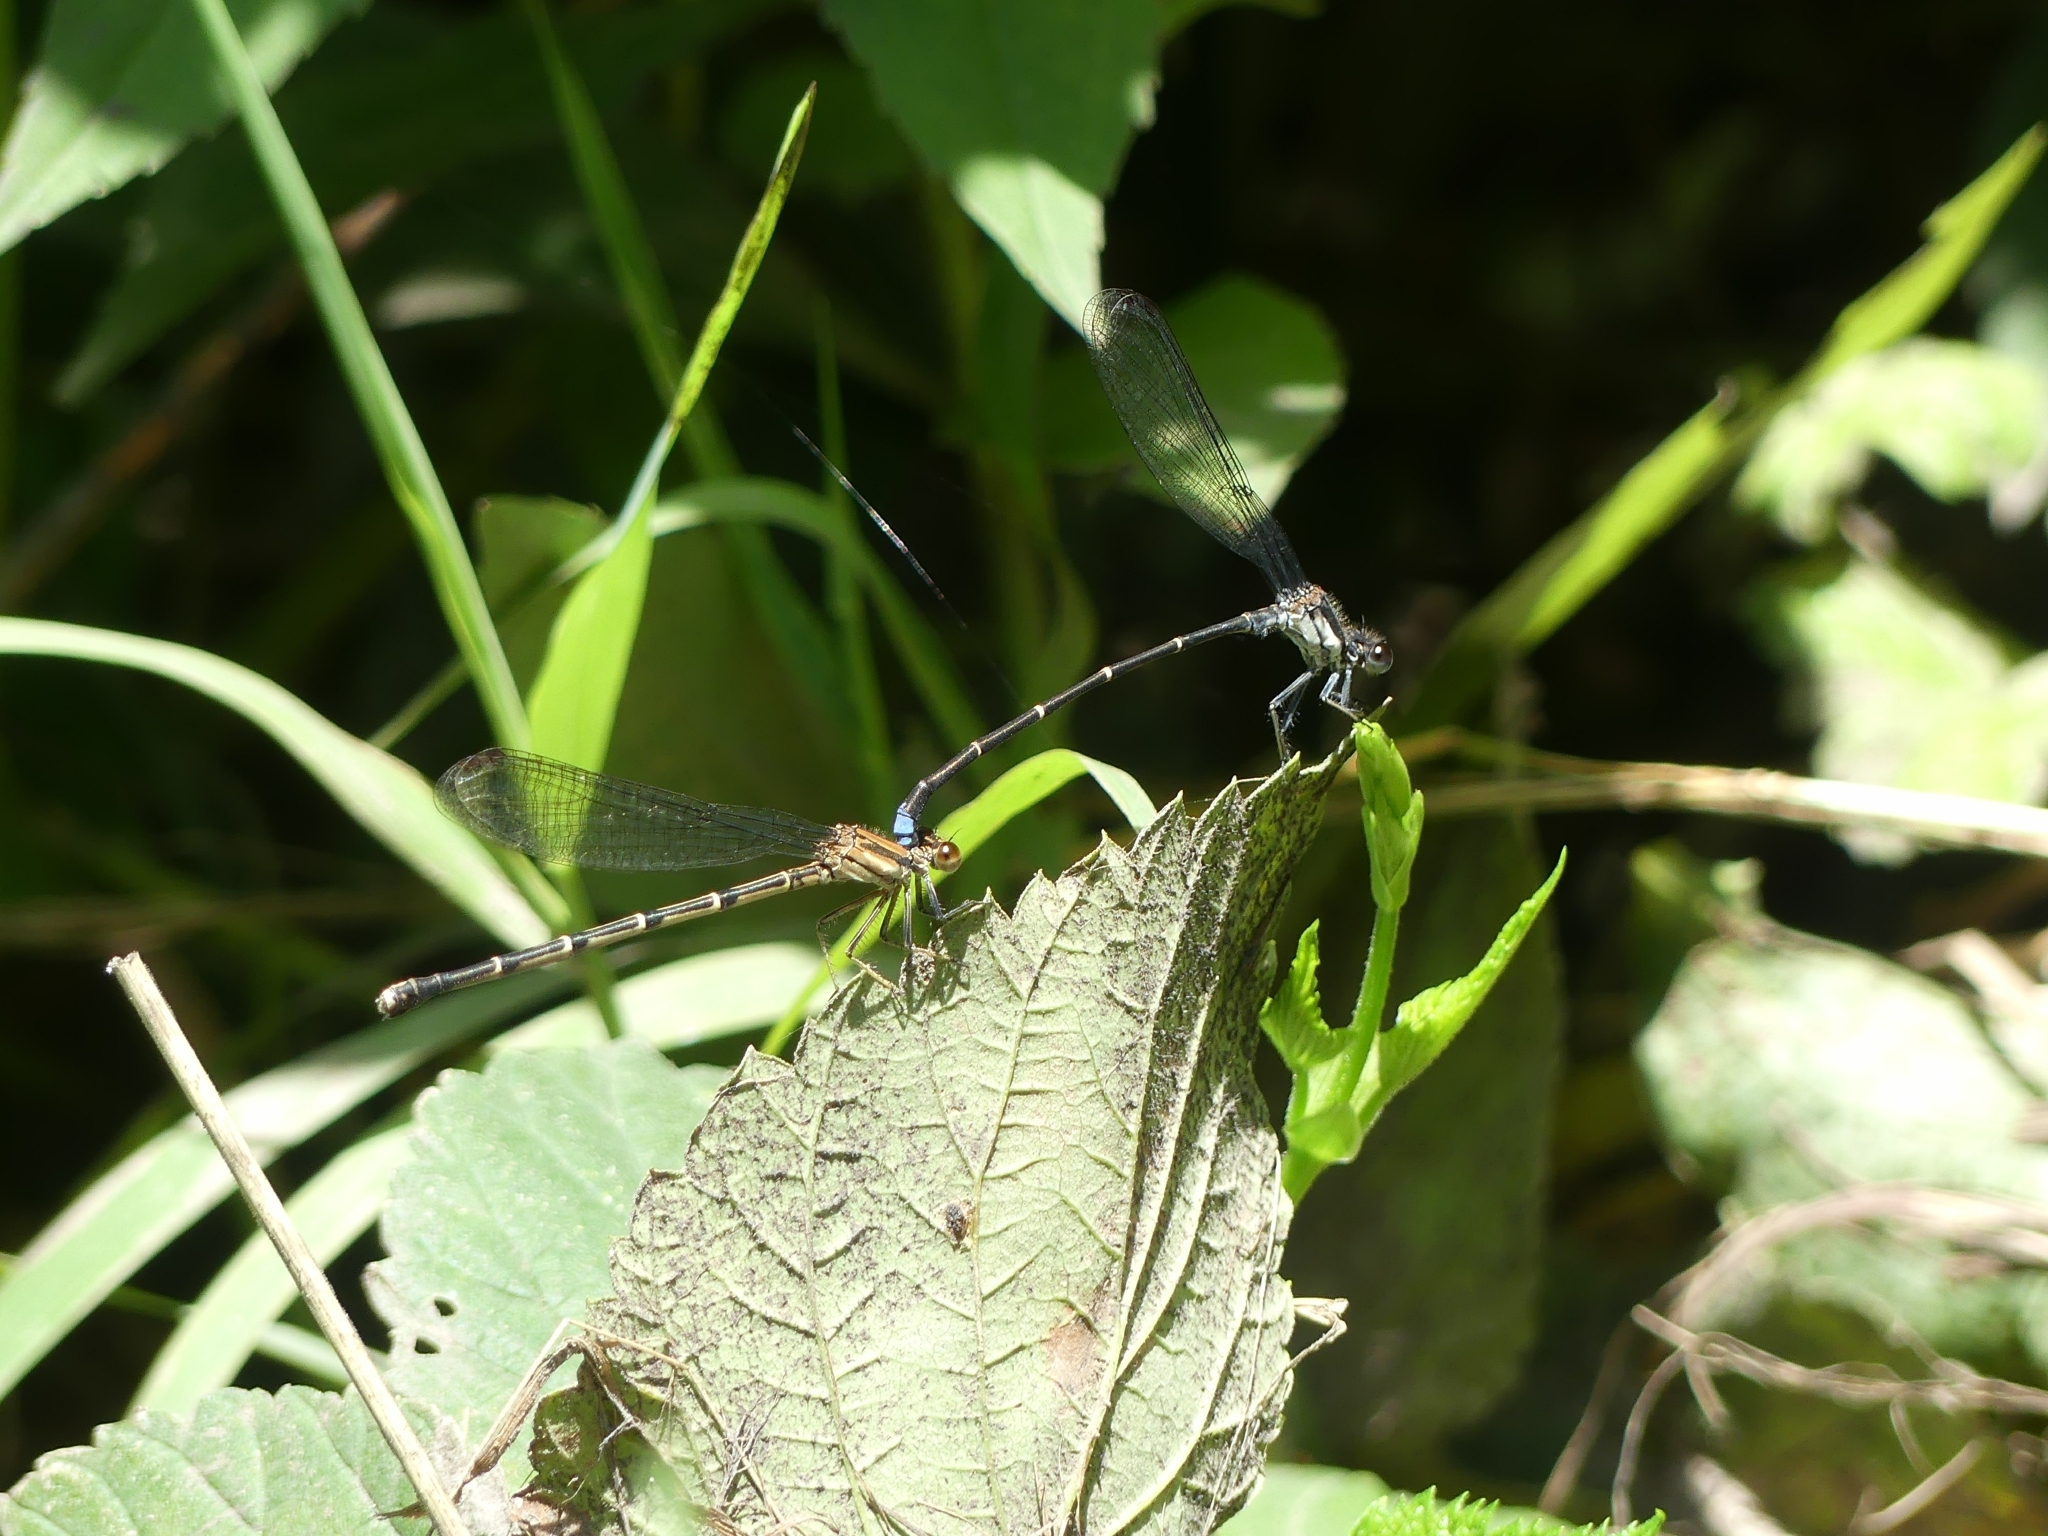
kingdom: Animalia
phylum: Arthropoda
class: Insecta
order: Odonata
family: Coenagrionidae
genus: Argia
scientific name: Argia tibialis
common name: Blue-tipped dancer
